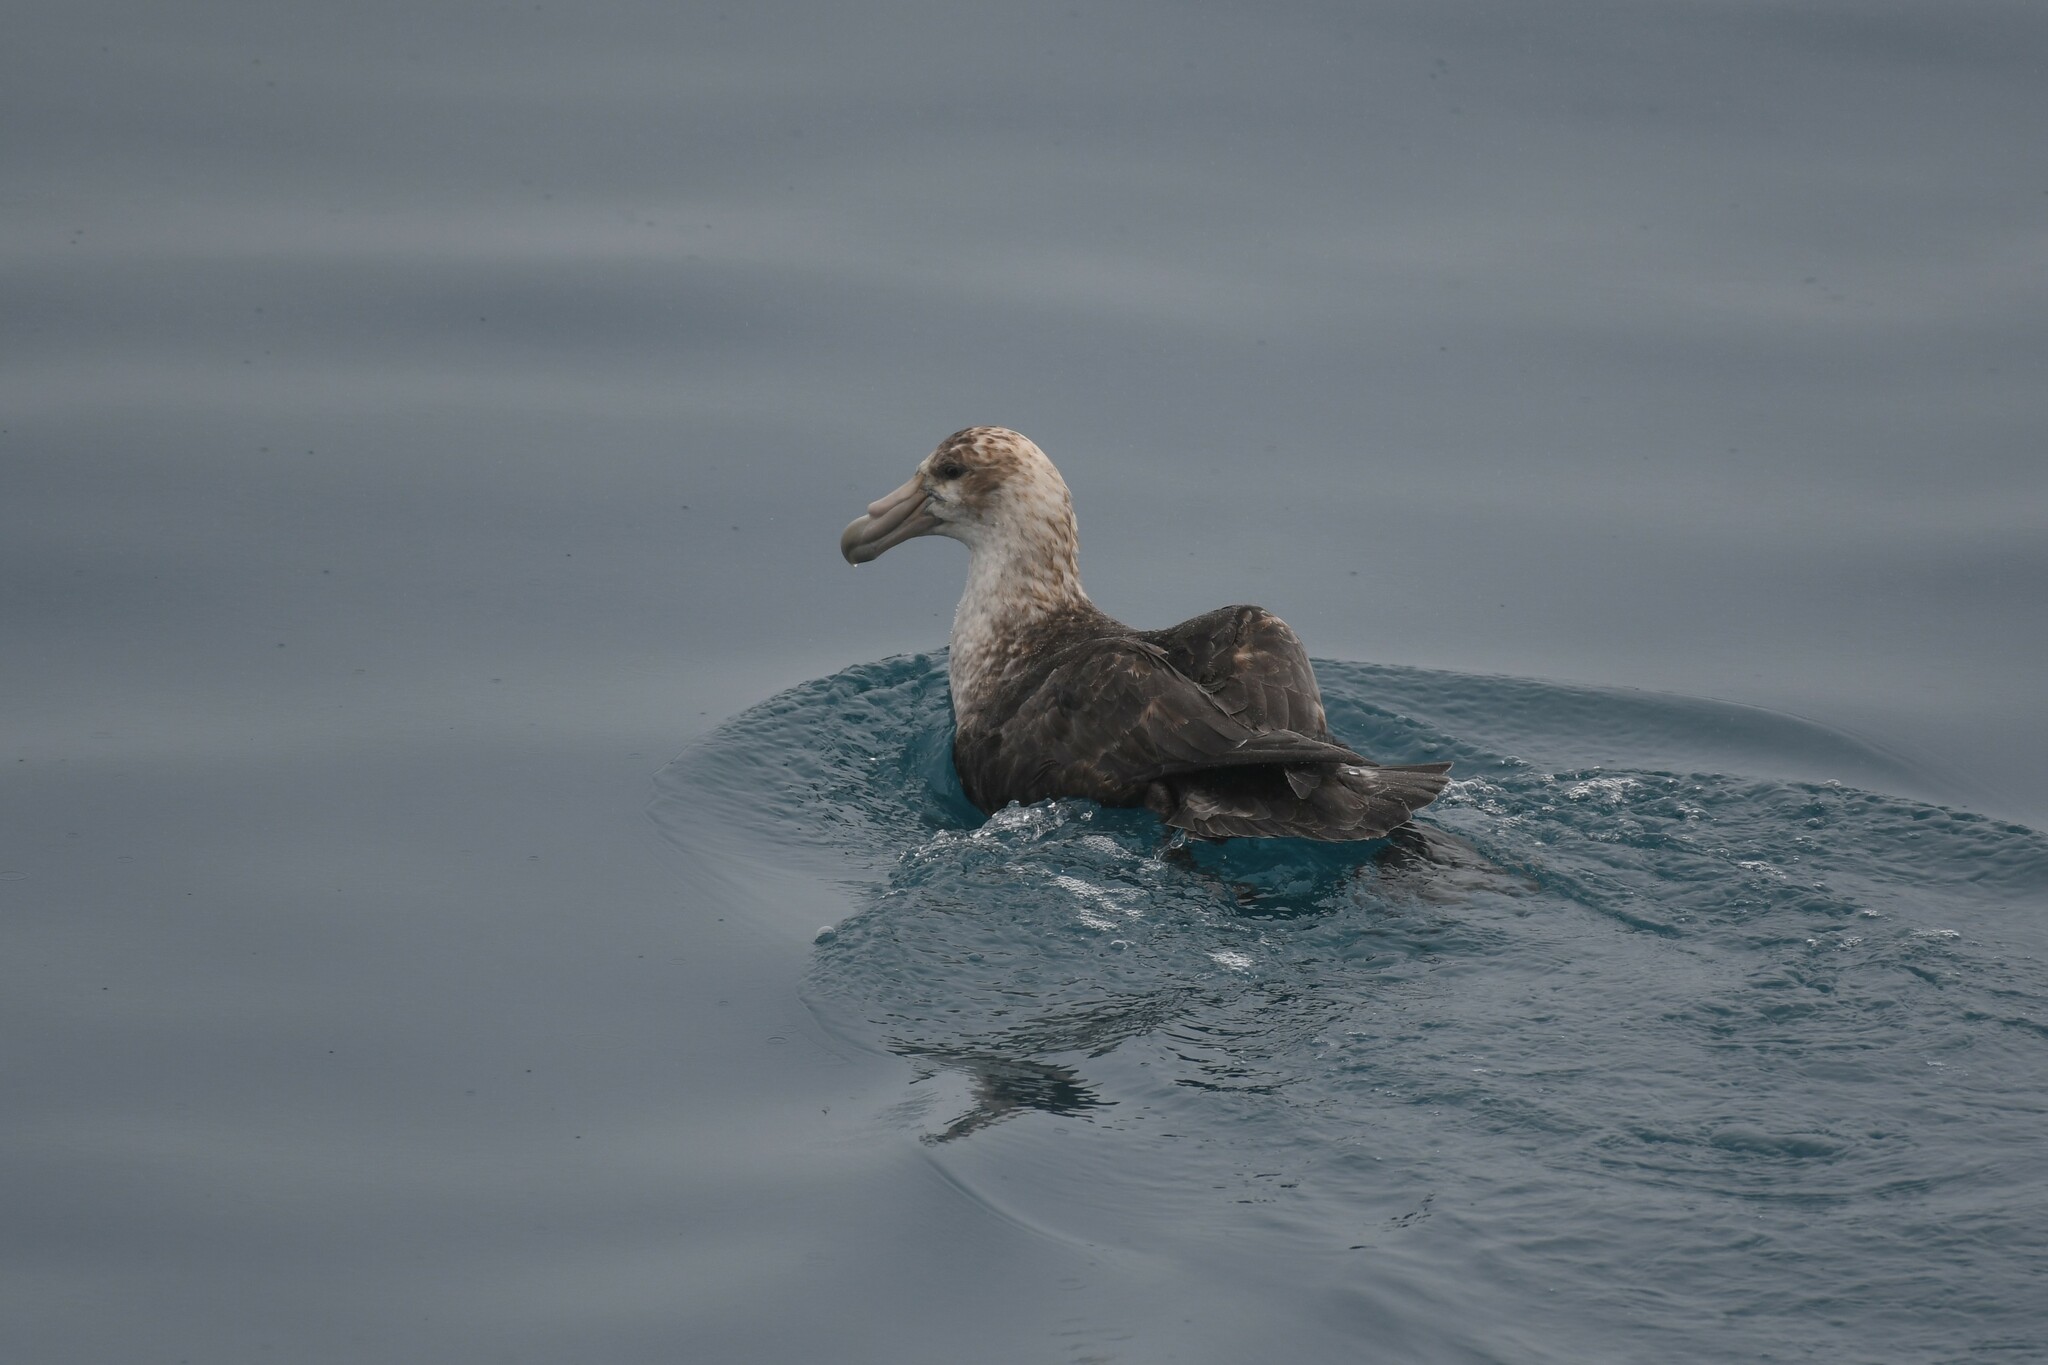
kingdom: Animalia
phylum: Chordata
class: Aves
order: Procellariiformes
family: Procellariidae
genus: Macronectes
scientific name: Macronectes giganteus
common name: Southern giant petrel
